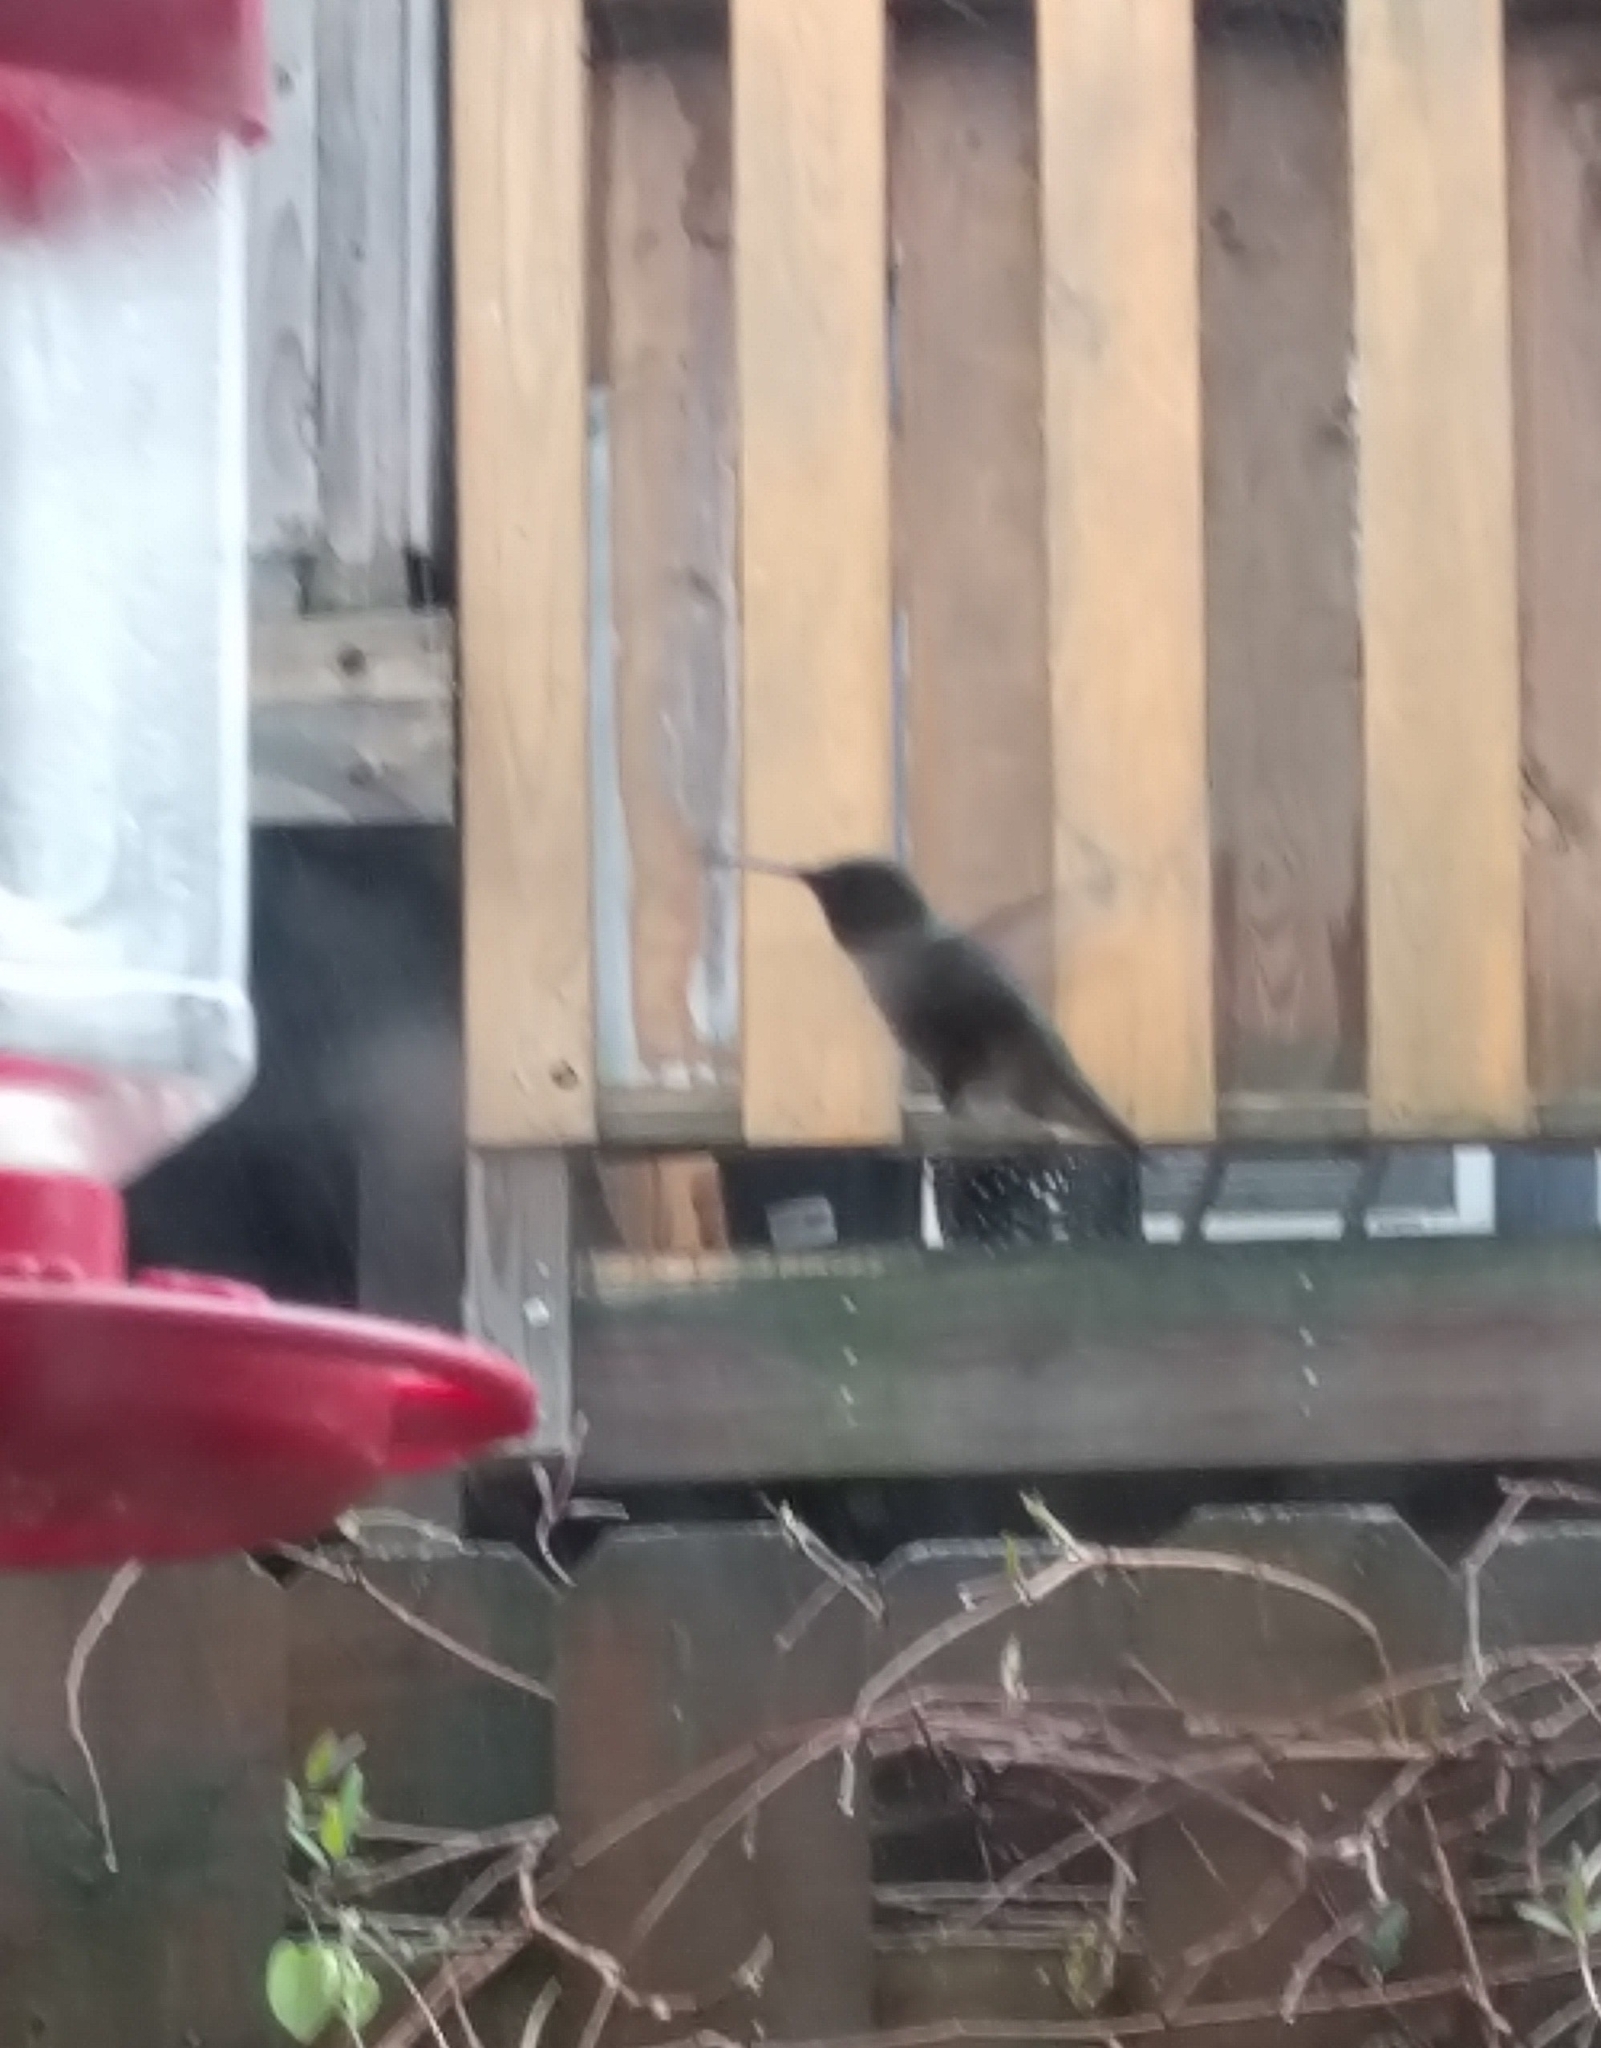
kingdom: Animalia
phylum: Chordata
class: Aves
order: Apodiformes
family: Trochilidae
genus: Archilochus
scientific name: Archilochus colubris
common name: Ruby-throated hummingbird
